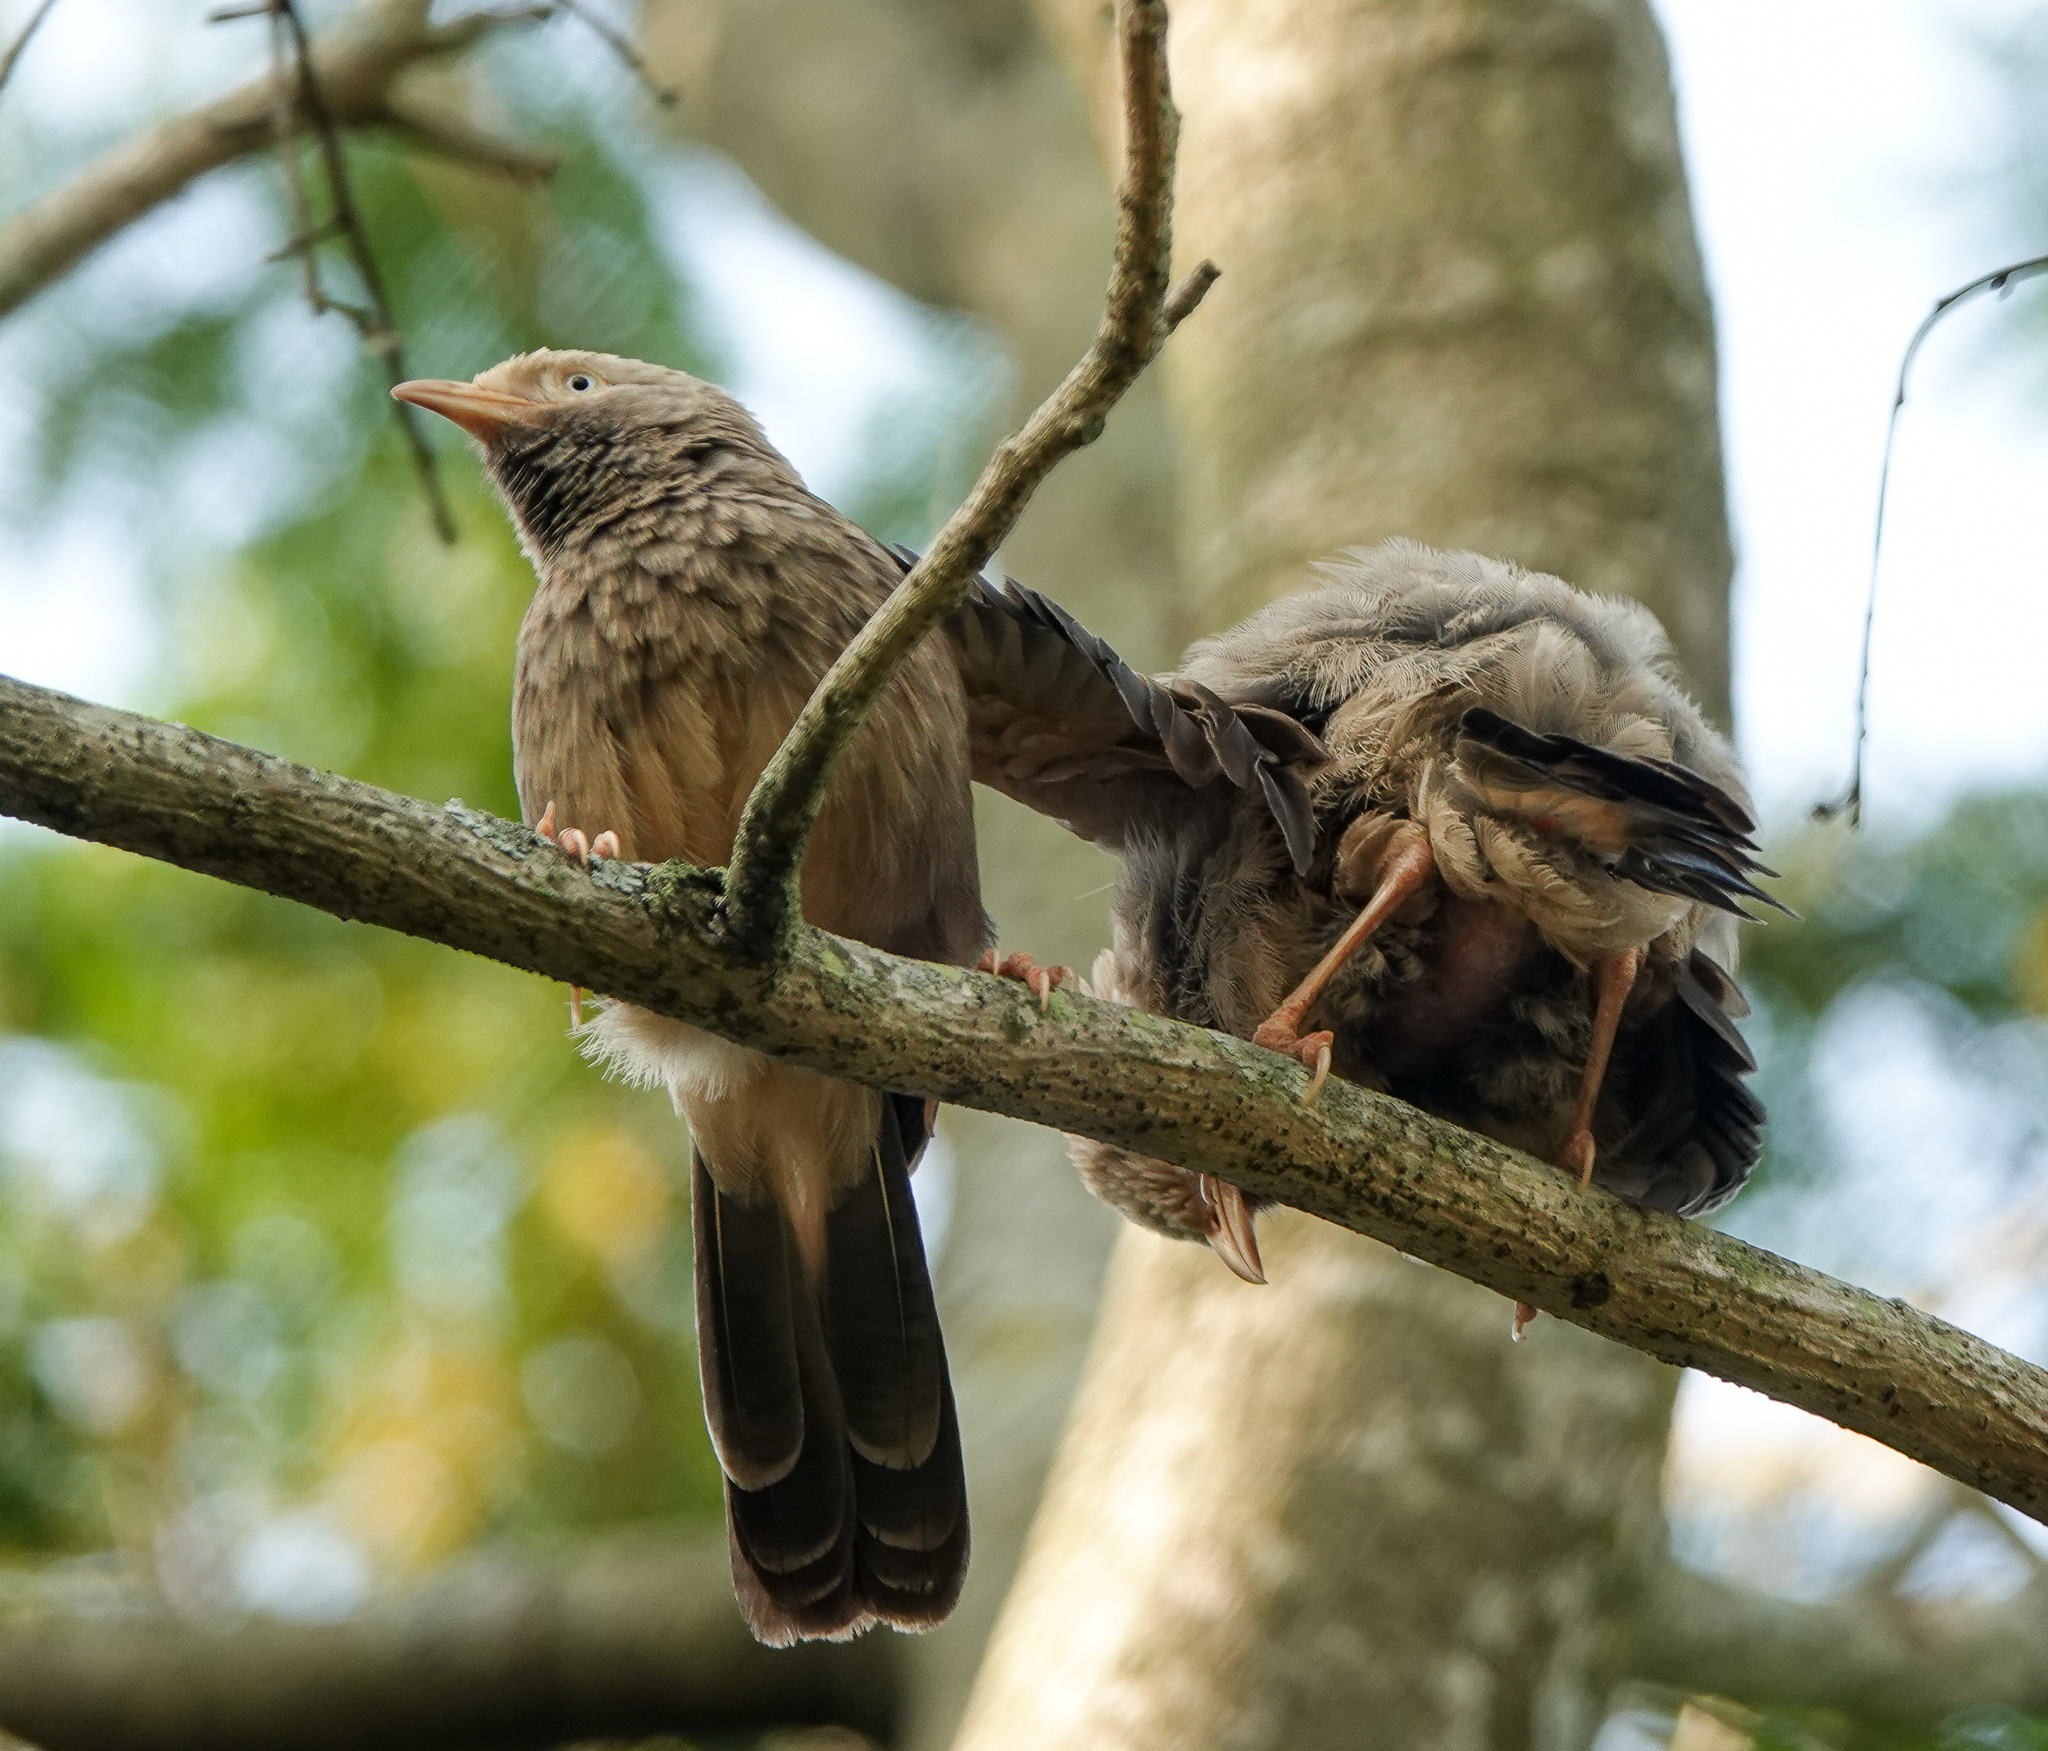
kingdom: Animalia
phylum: Chordata
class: Aves
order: Passeriformes
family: Leiothrichidae
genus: Turdoides
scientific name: Turdoides affinis
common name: Yellow-billed babbler
